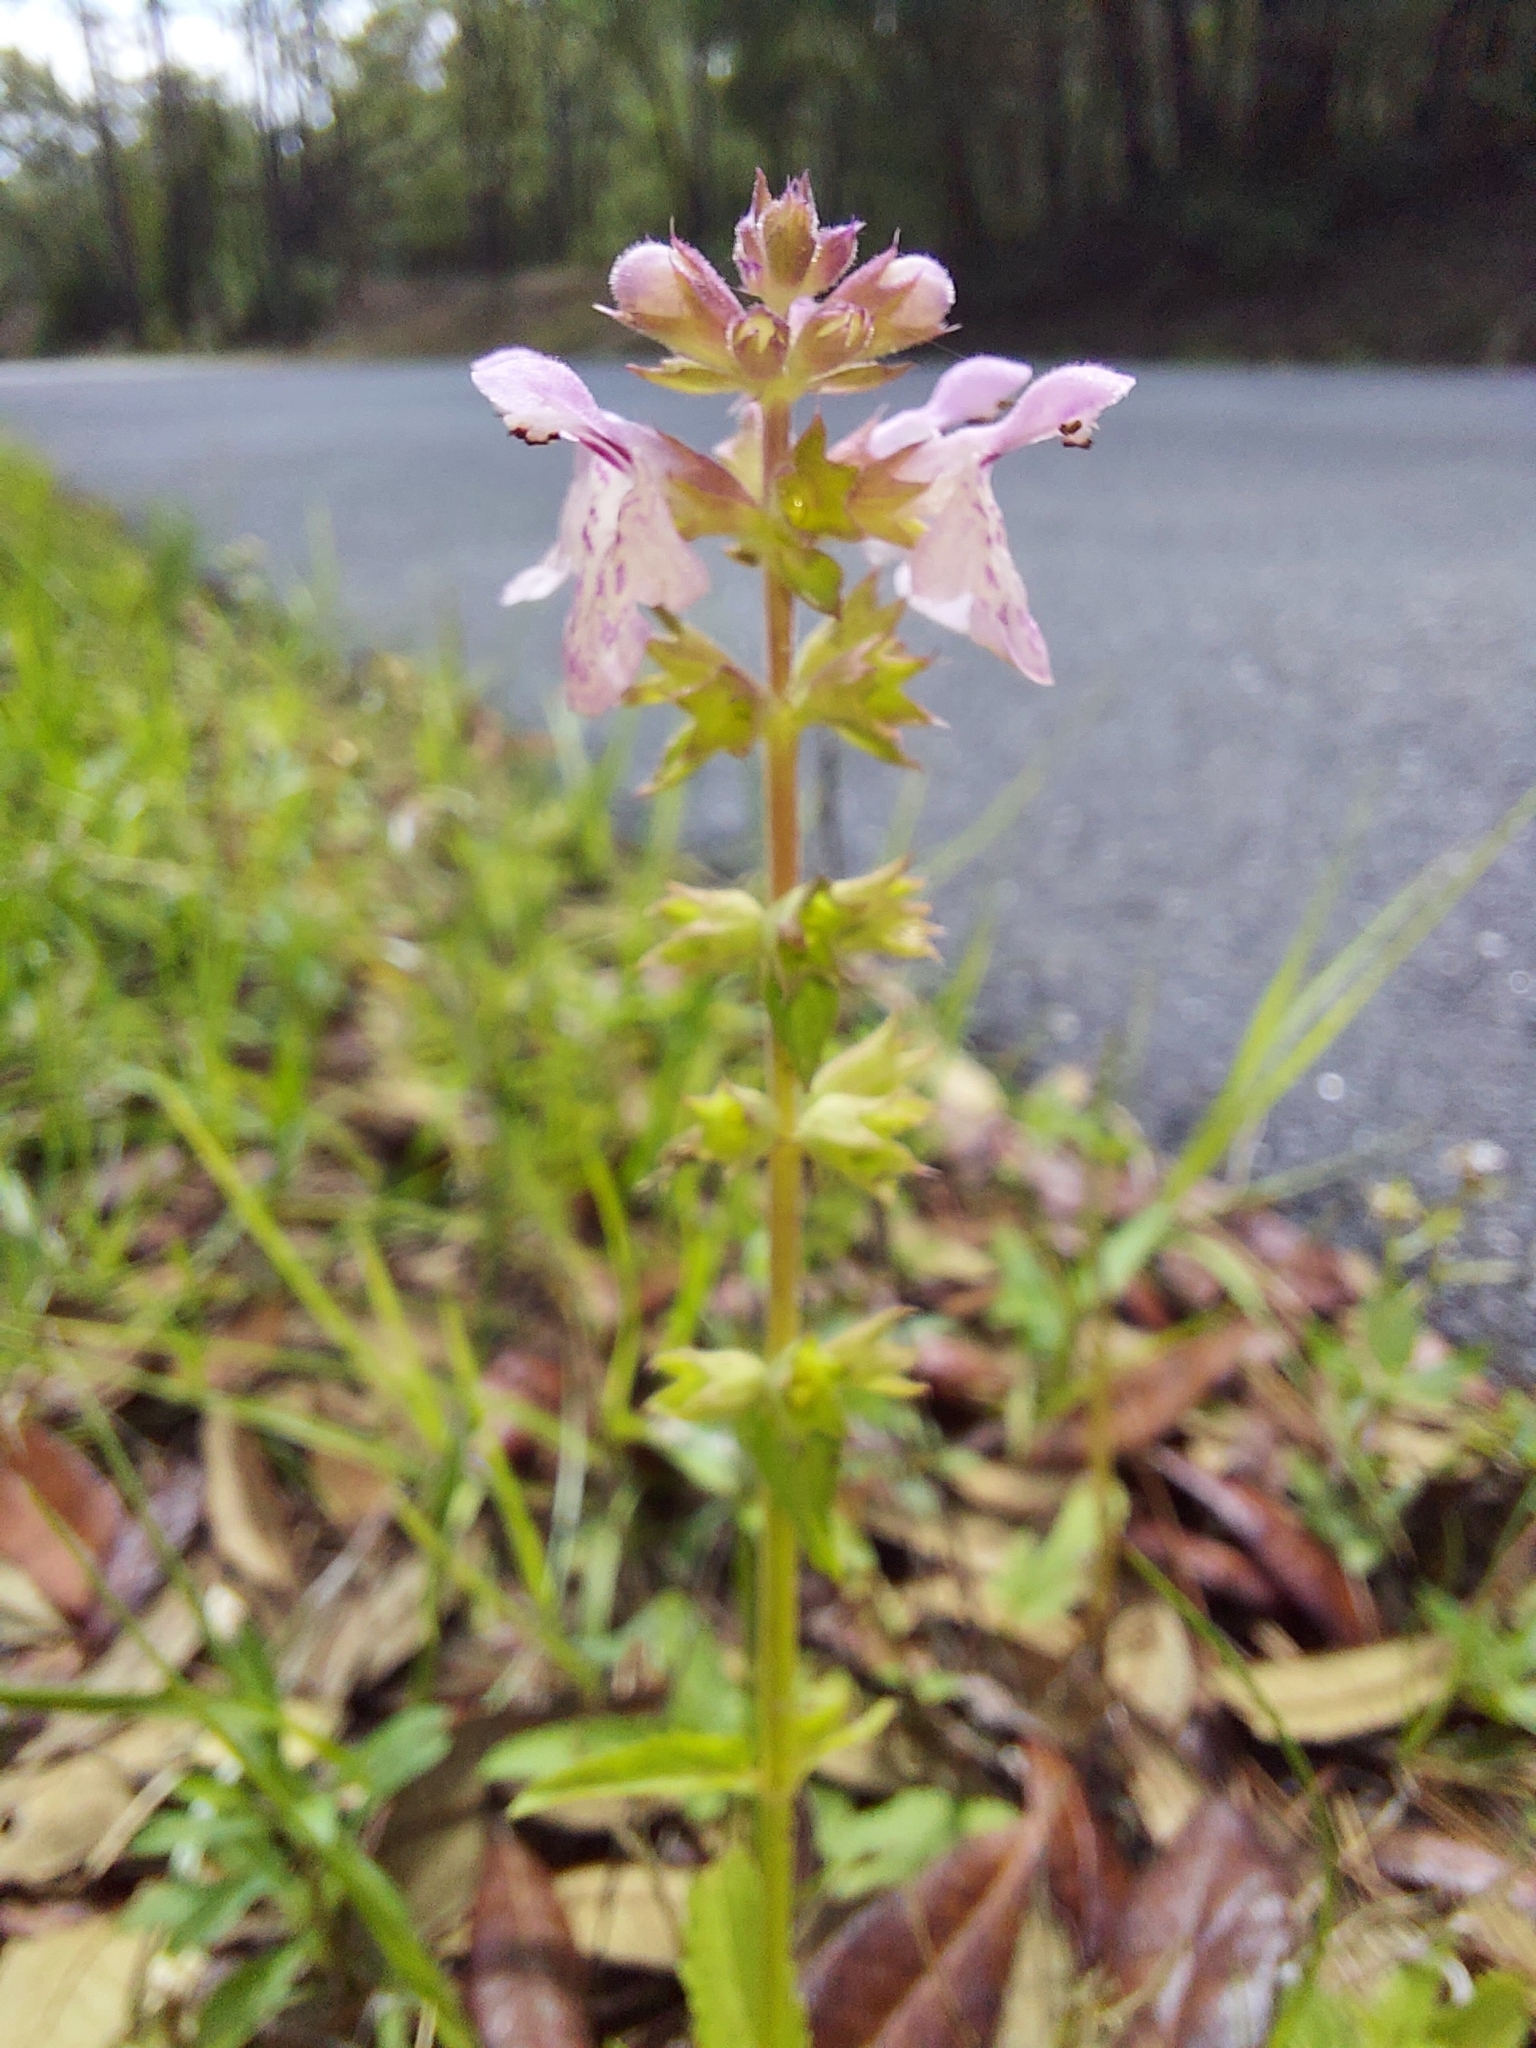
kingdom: Plantae
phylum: Tracheophyta
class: Magnoliopsida
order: Lamiales
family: Lamiaceae
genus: Stachys
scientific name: Stachys floridana
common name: Florida betony
